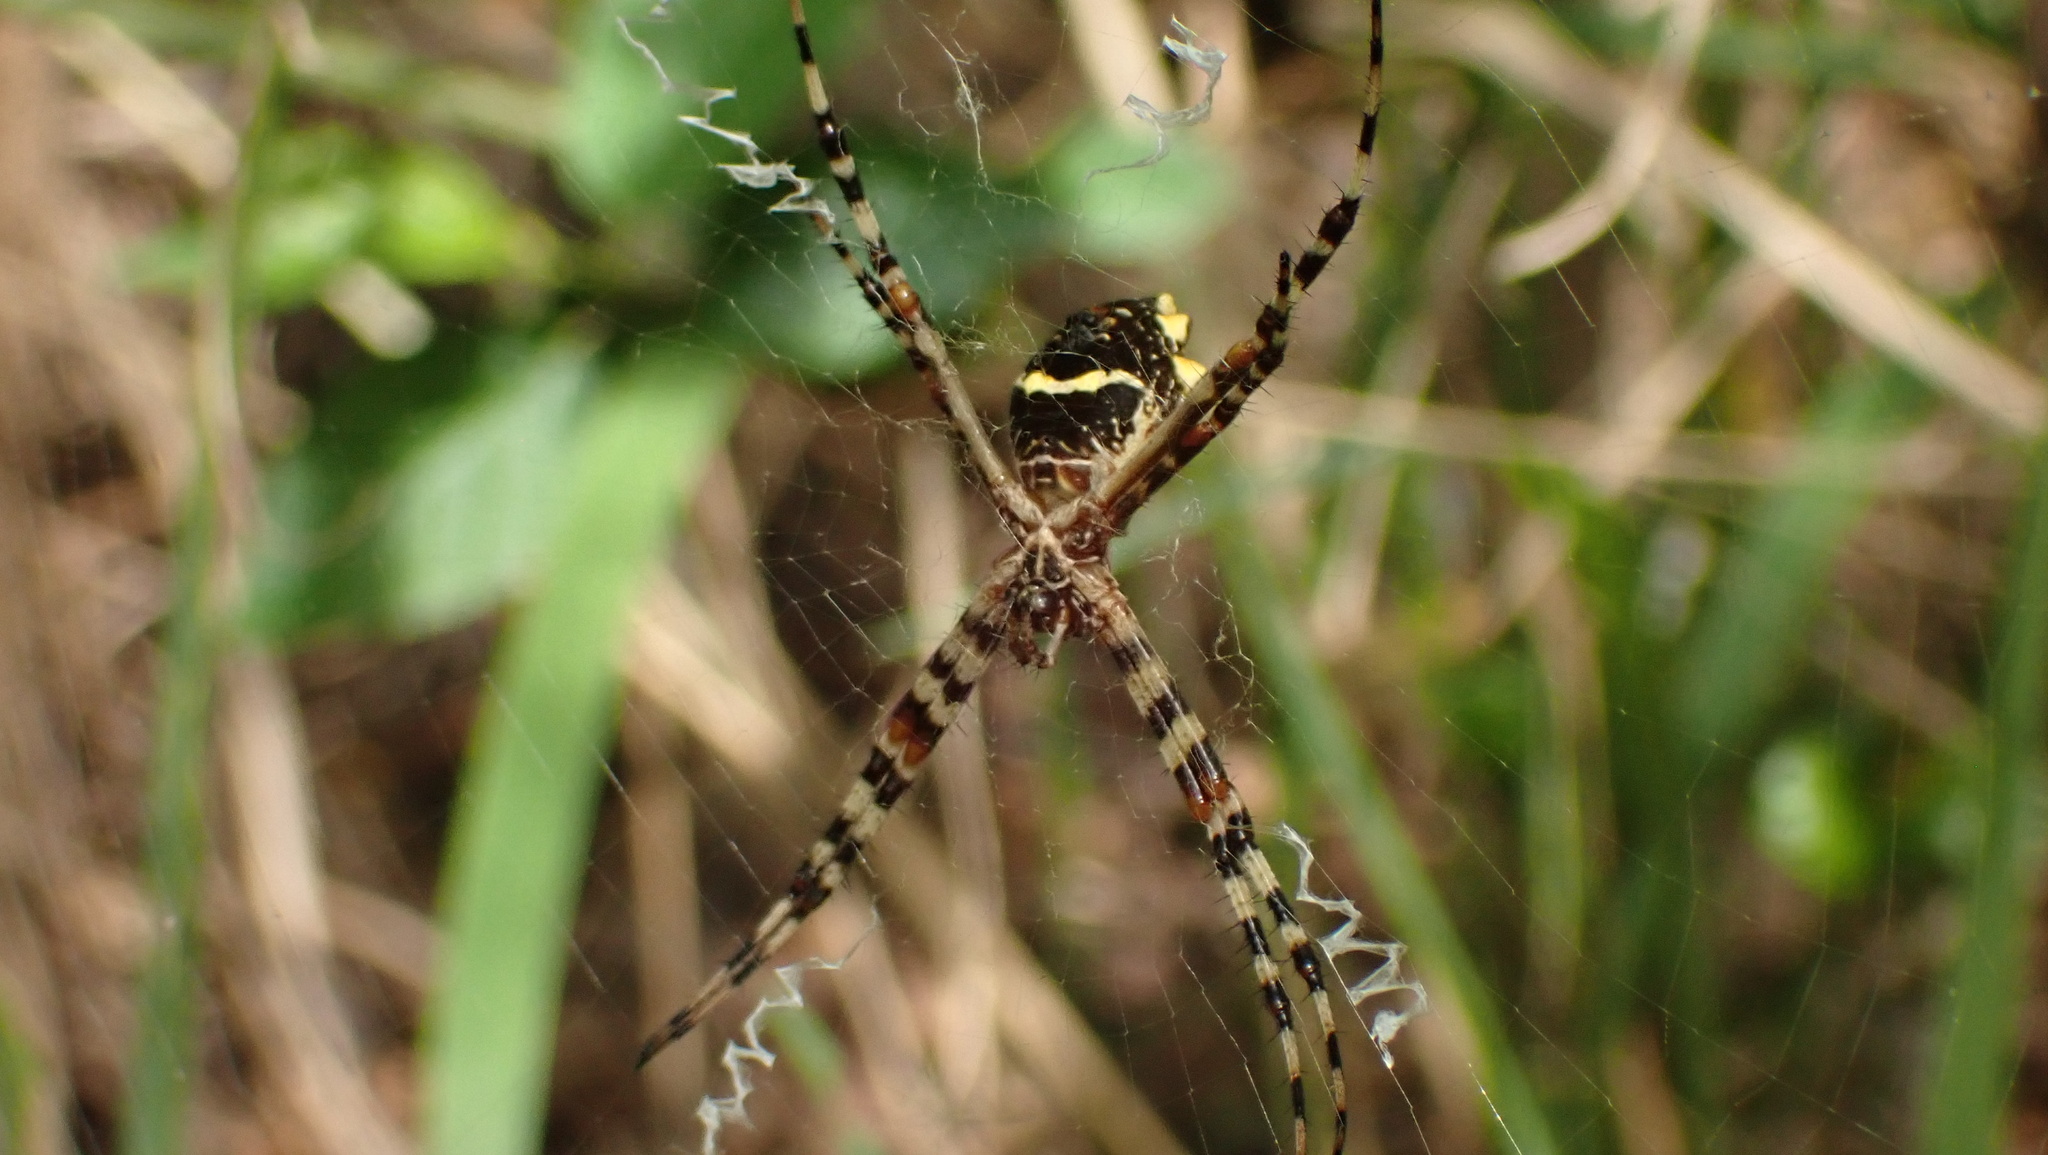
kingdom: Animalia
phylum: Arthropoda
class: Arachnida
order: Araneae
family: Araneidae
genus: Argiope
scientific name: Argiope argentata
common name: Orb weavers
